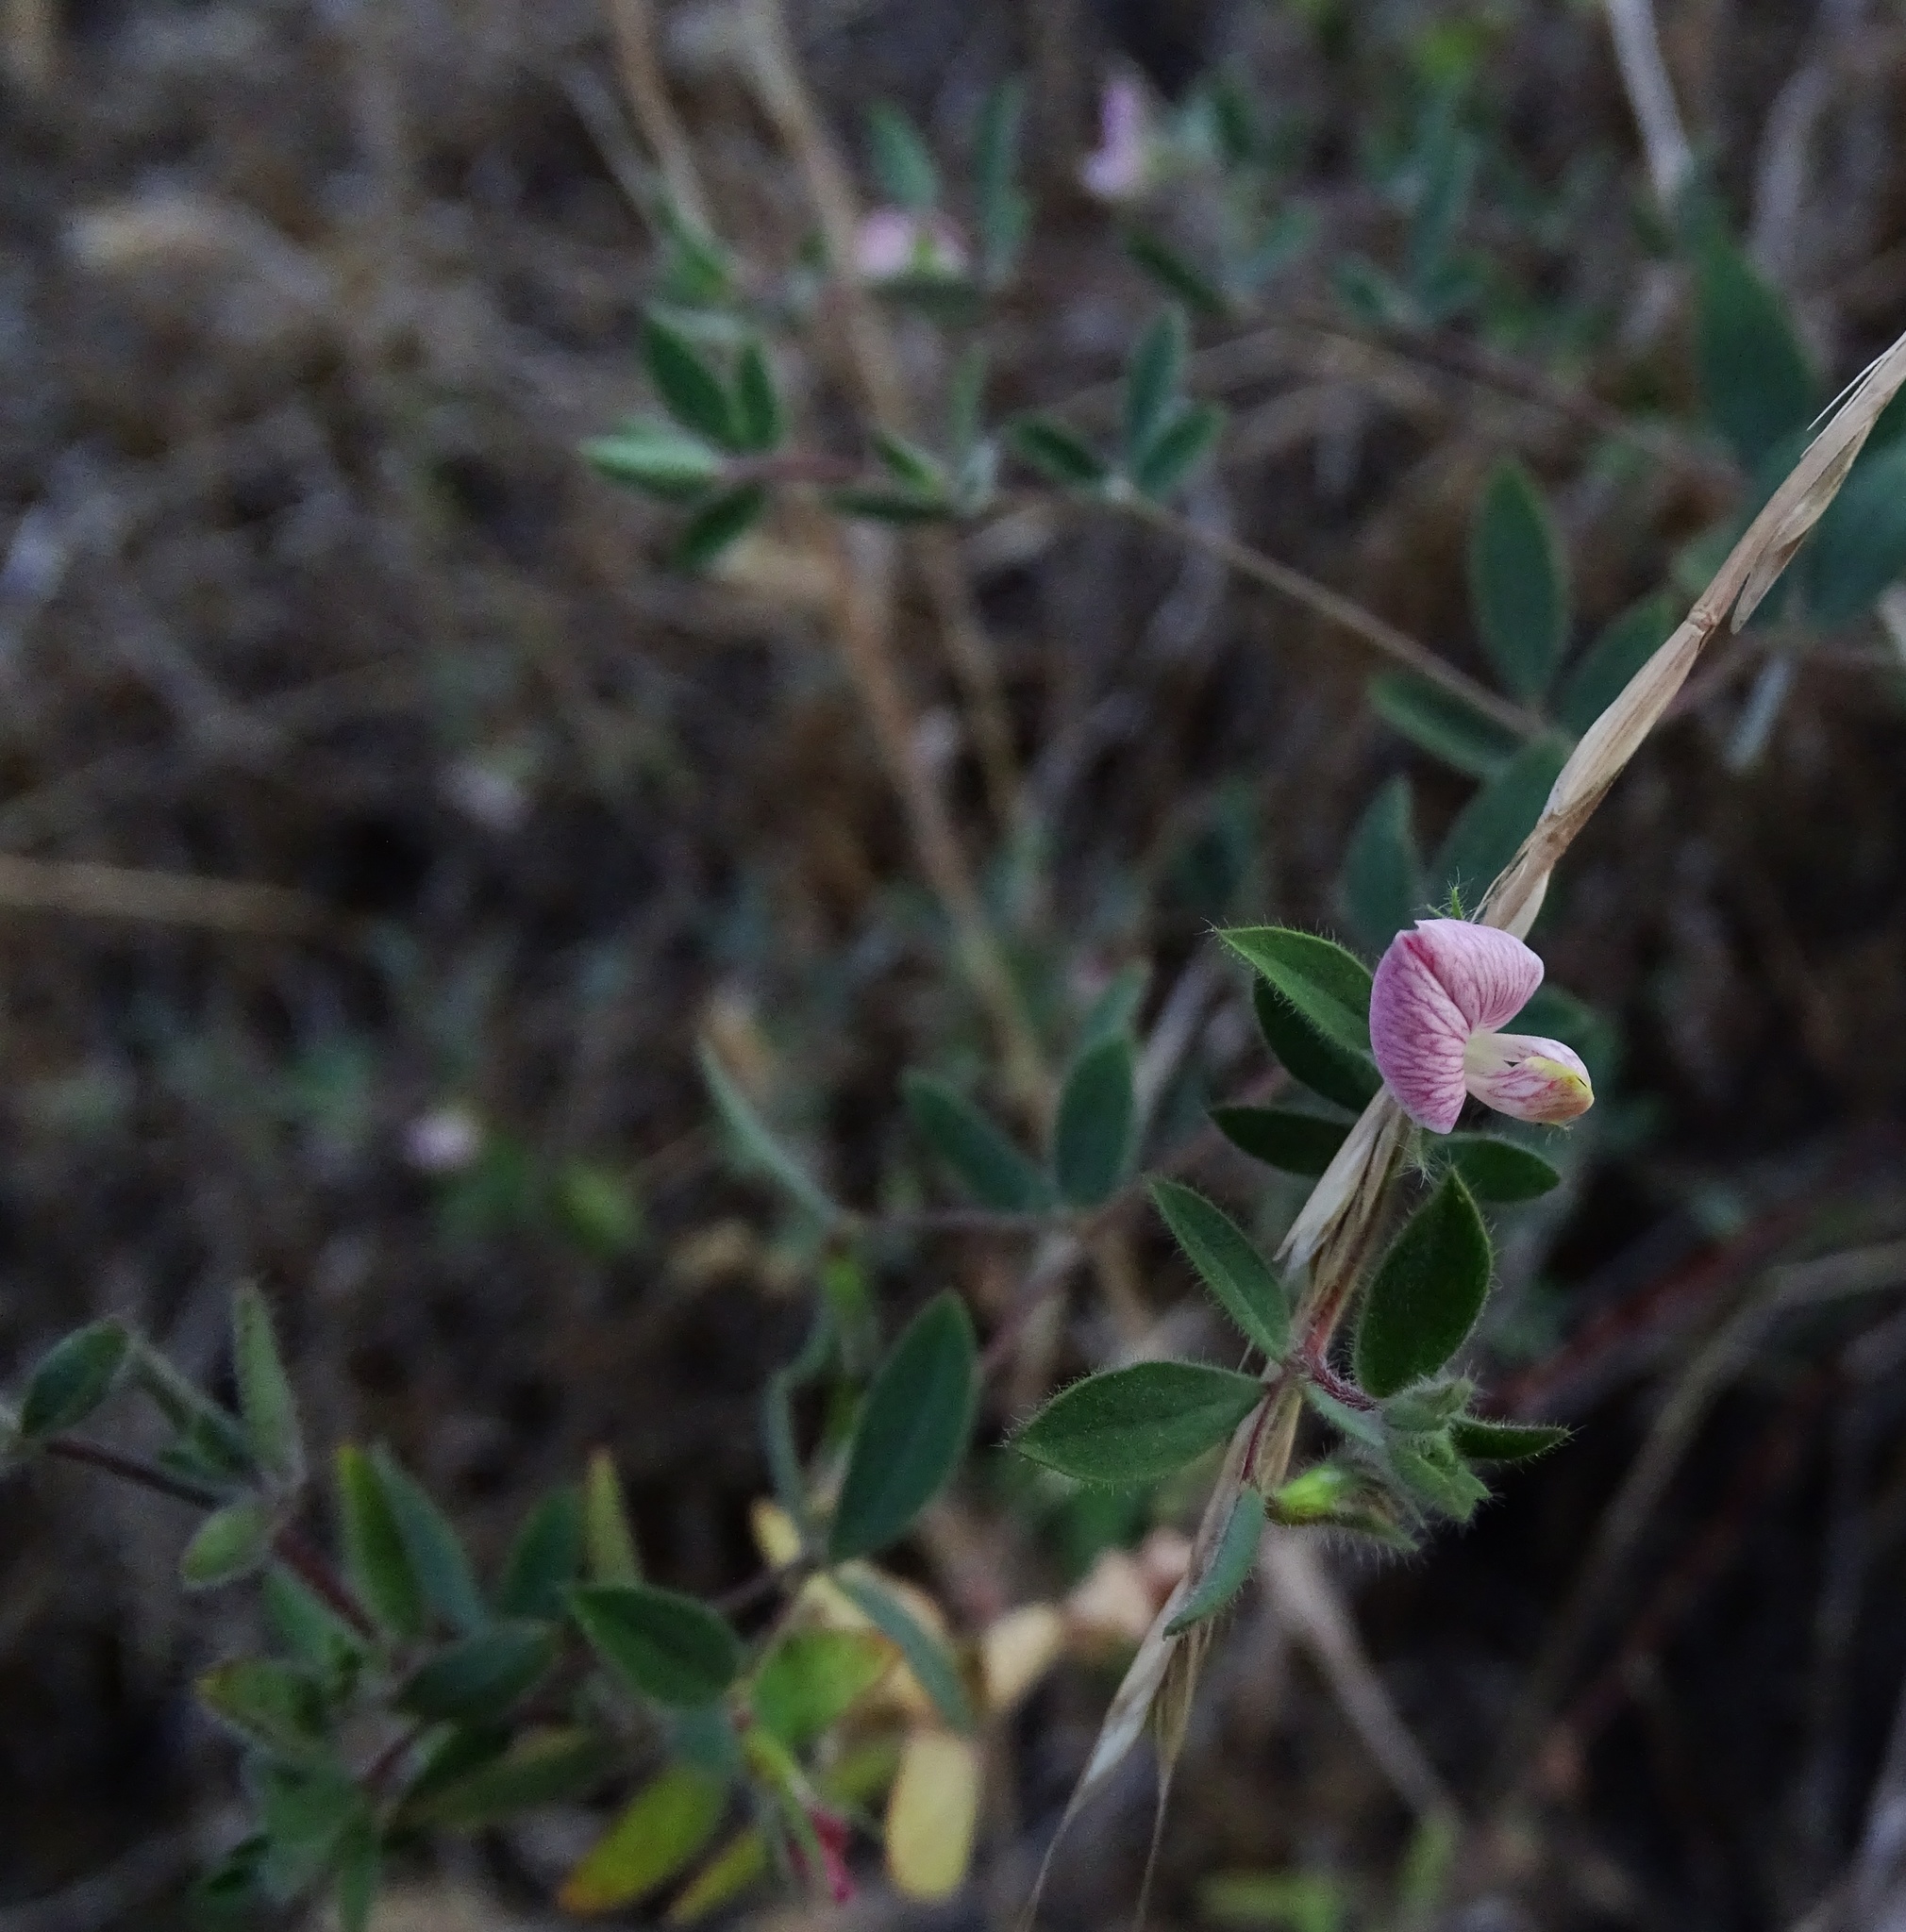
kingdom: Plantae
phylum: Tracheophyta
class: Magnoliopsida
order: Fabales
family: Fabaceae
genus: Acmispon
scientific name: Acmispon americanus
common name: American bird's-foot trefoil
